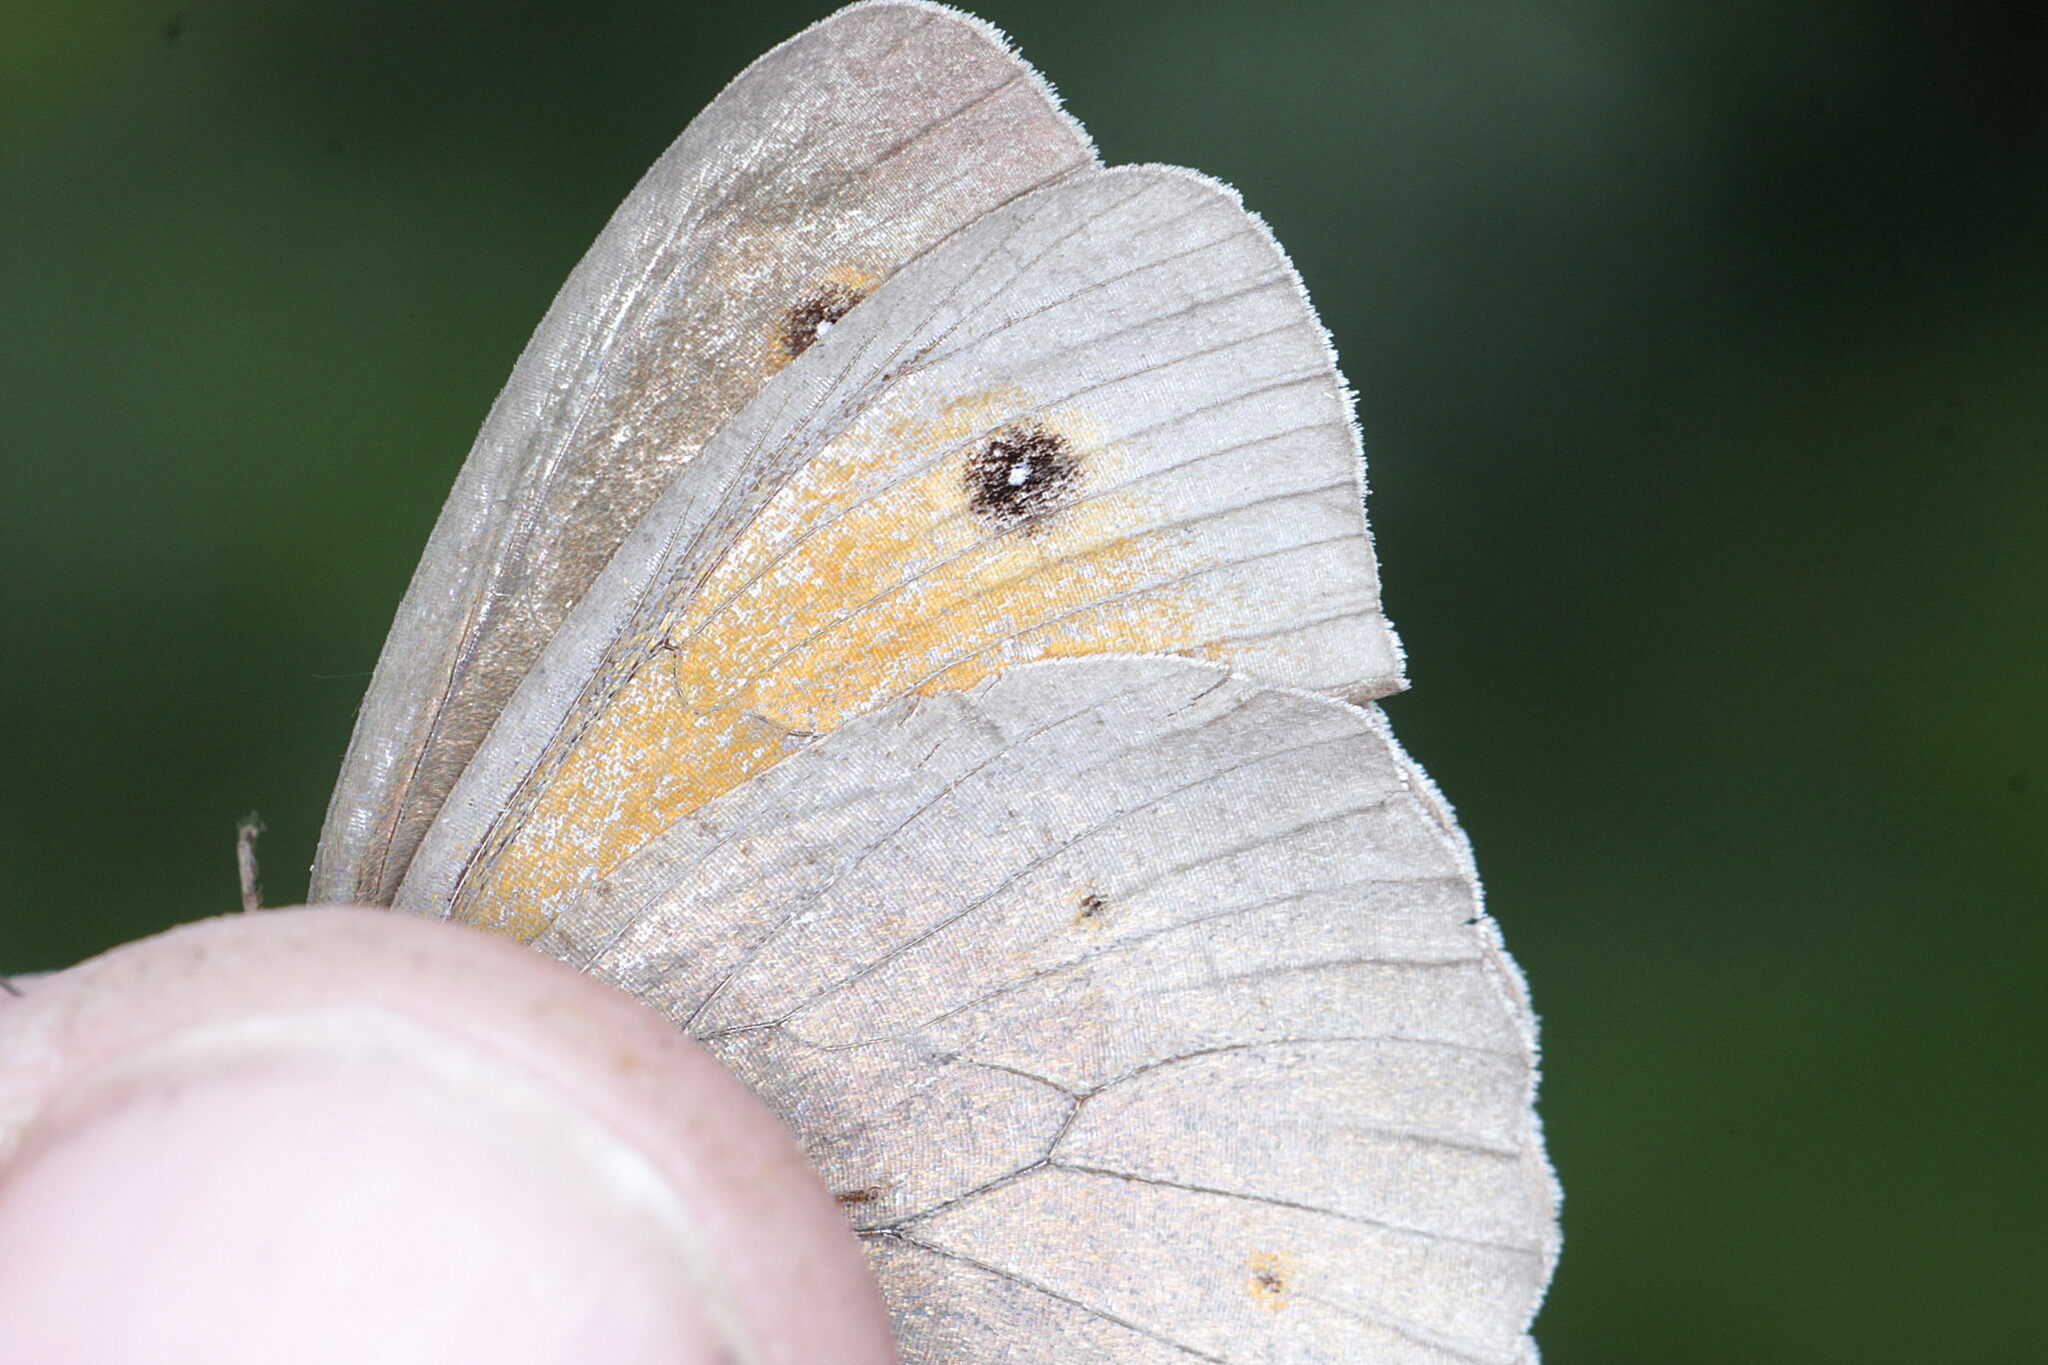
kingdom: Animalia
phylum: Arthropoda
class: Insecta
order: Lepidoptera
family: Nymphalidae
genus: Maniola
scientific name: Maniola jurtina
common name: Meadow brown
